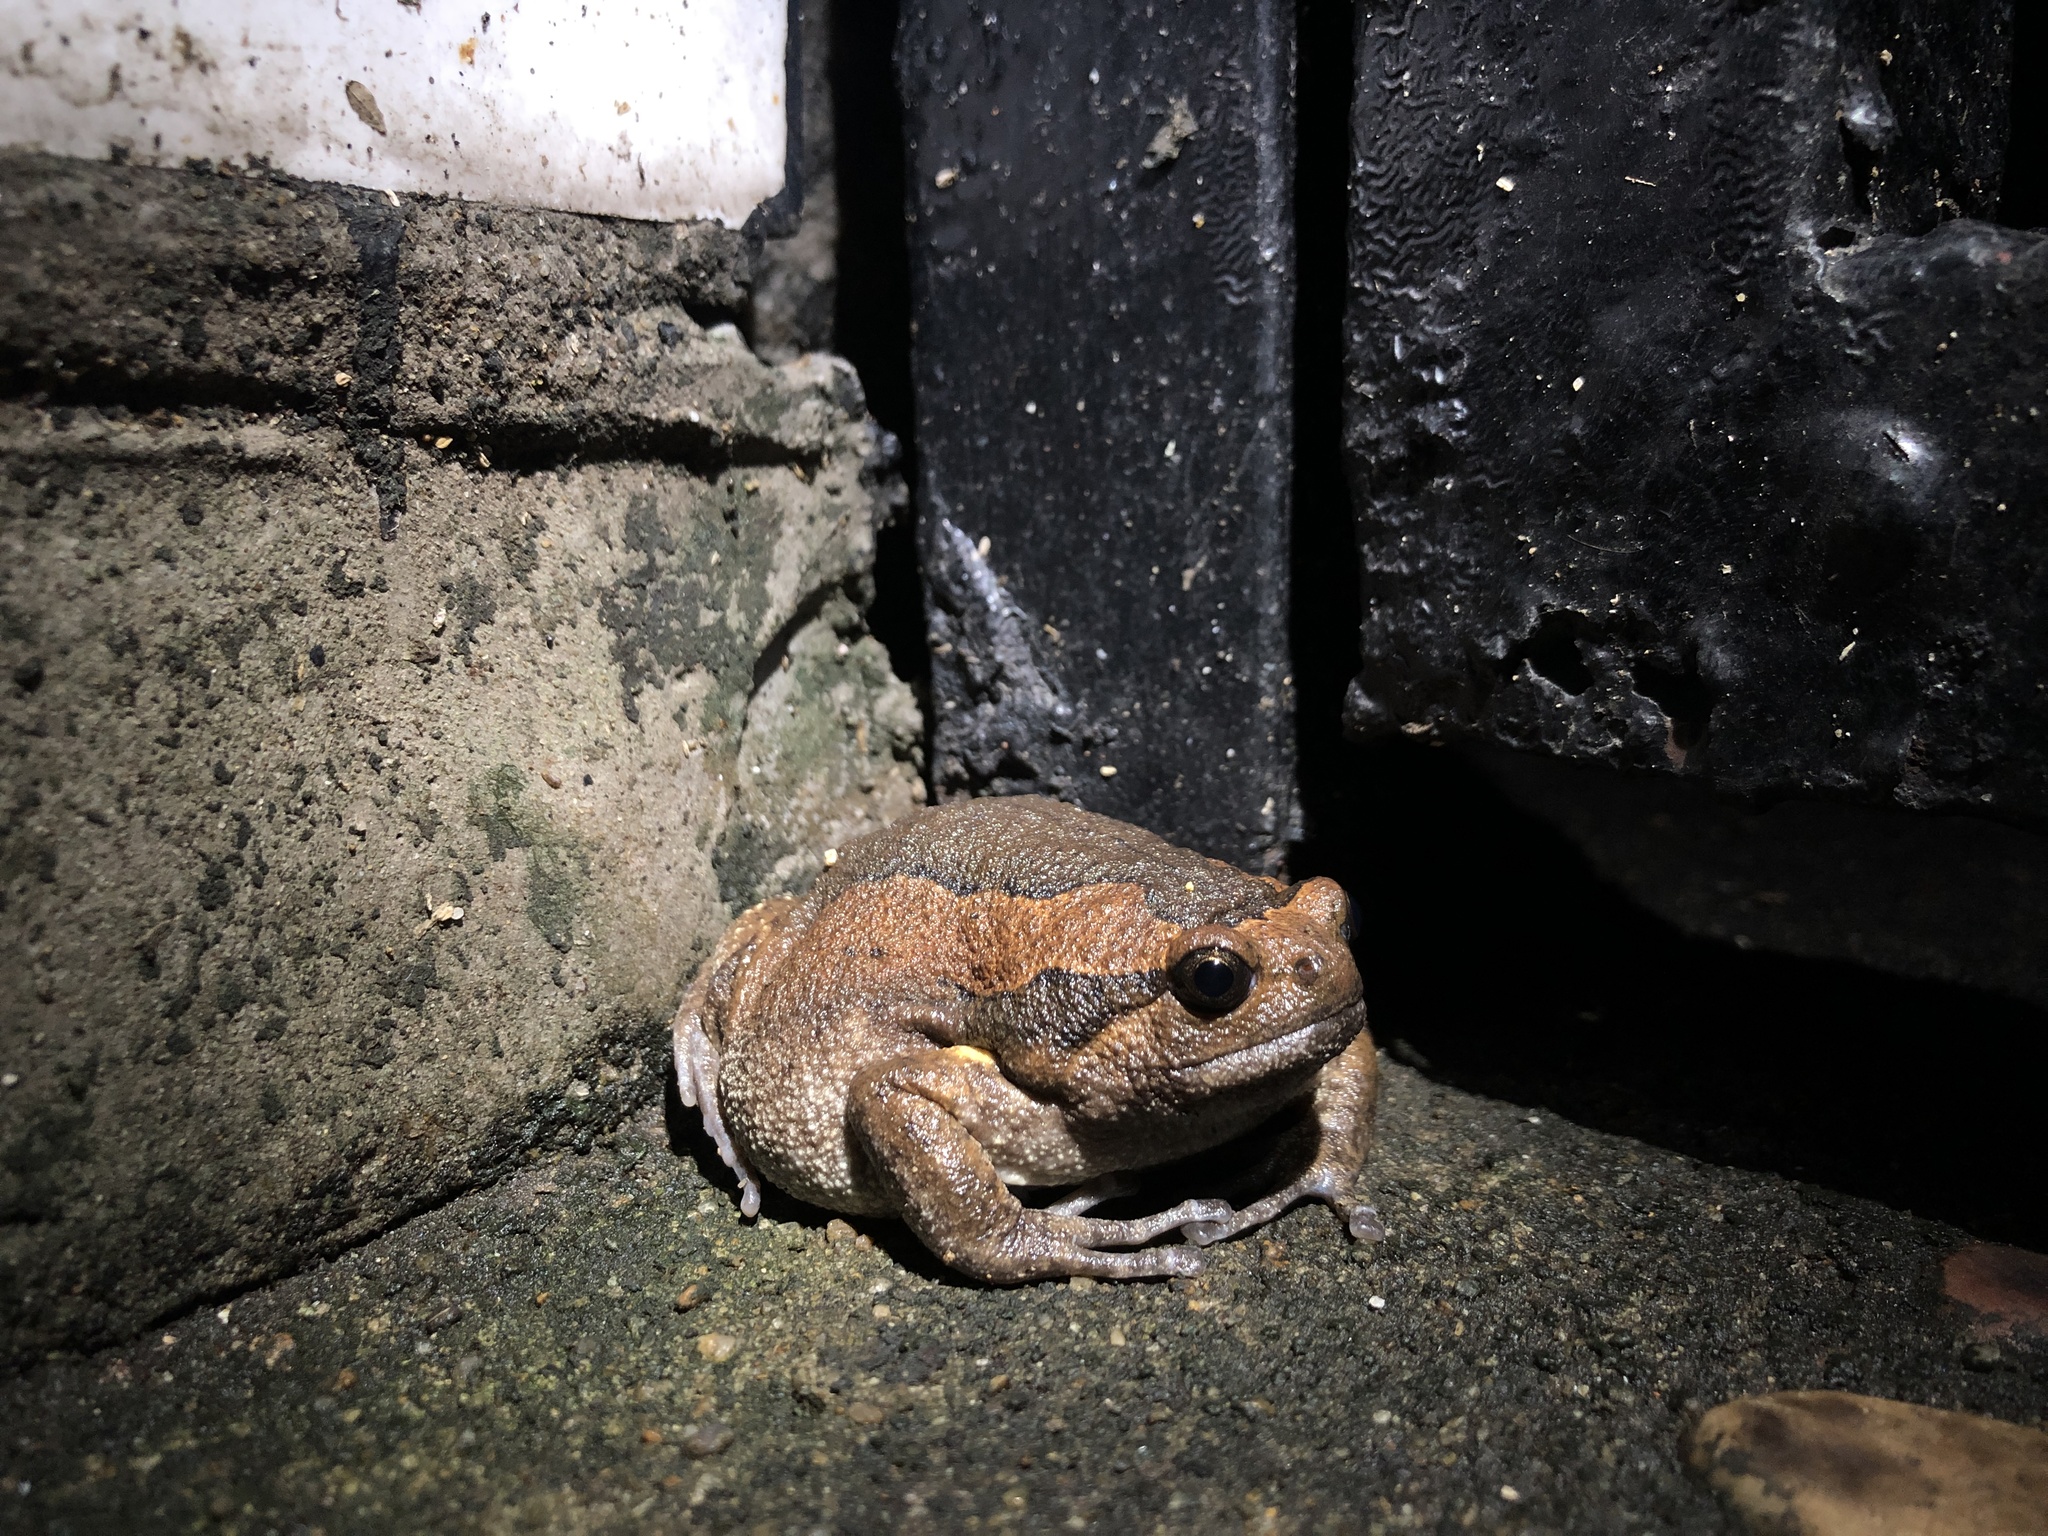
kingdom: Animalia
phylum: Chordata
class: Amphibia
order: Anura
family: Microhylidae
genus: Kaloula
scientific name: Kaloula pulchra
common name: Common,banded bullfrog
